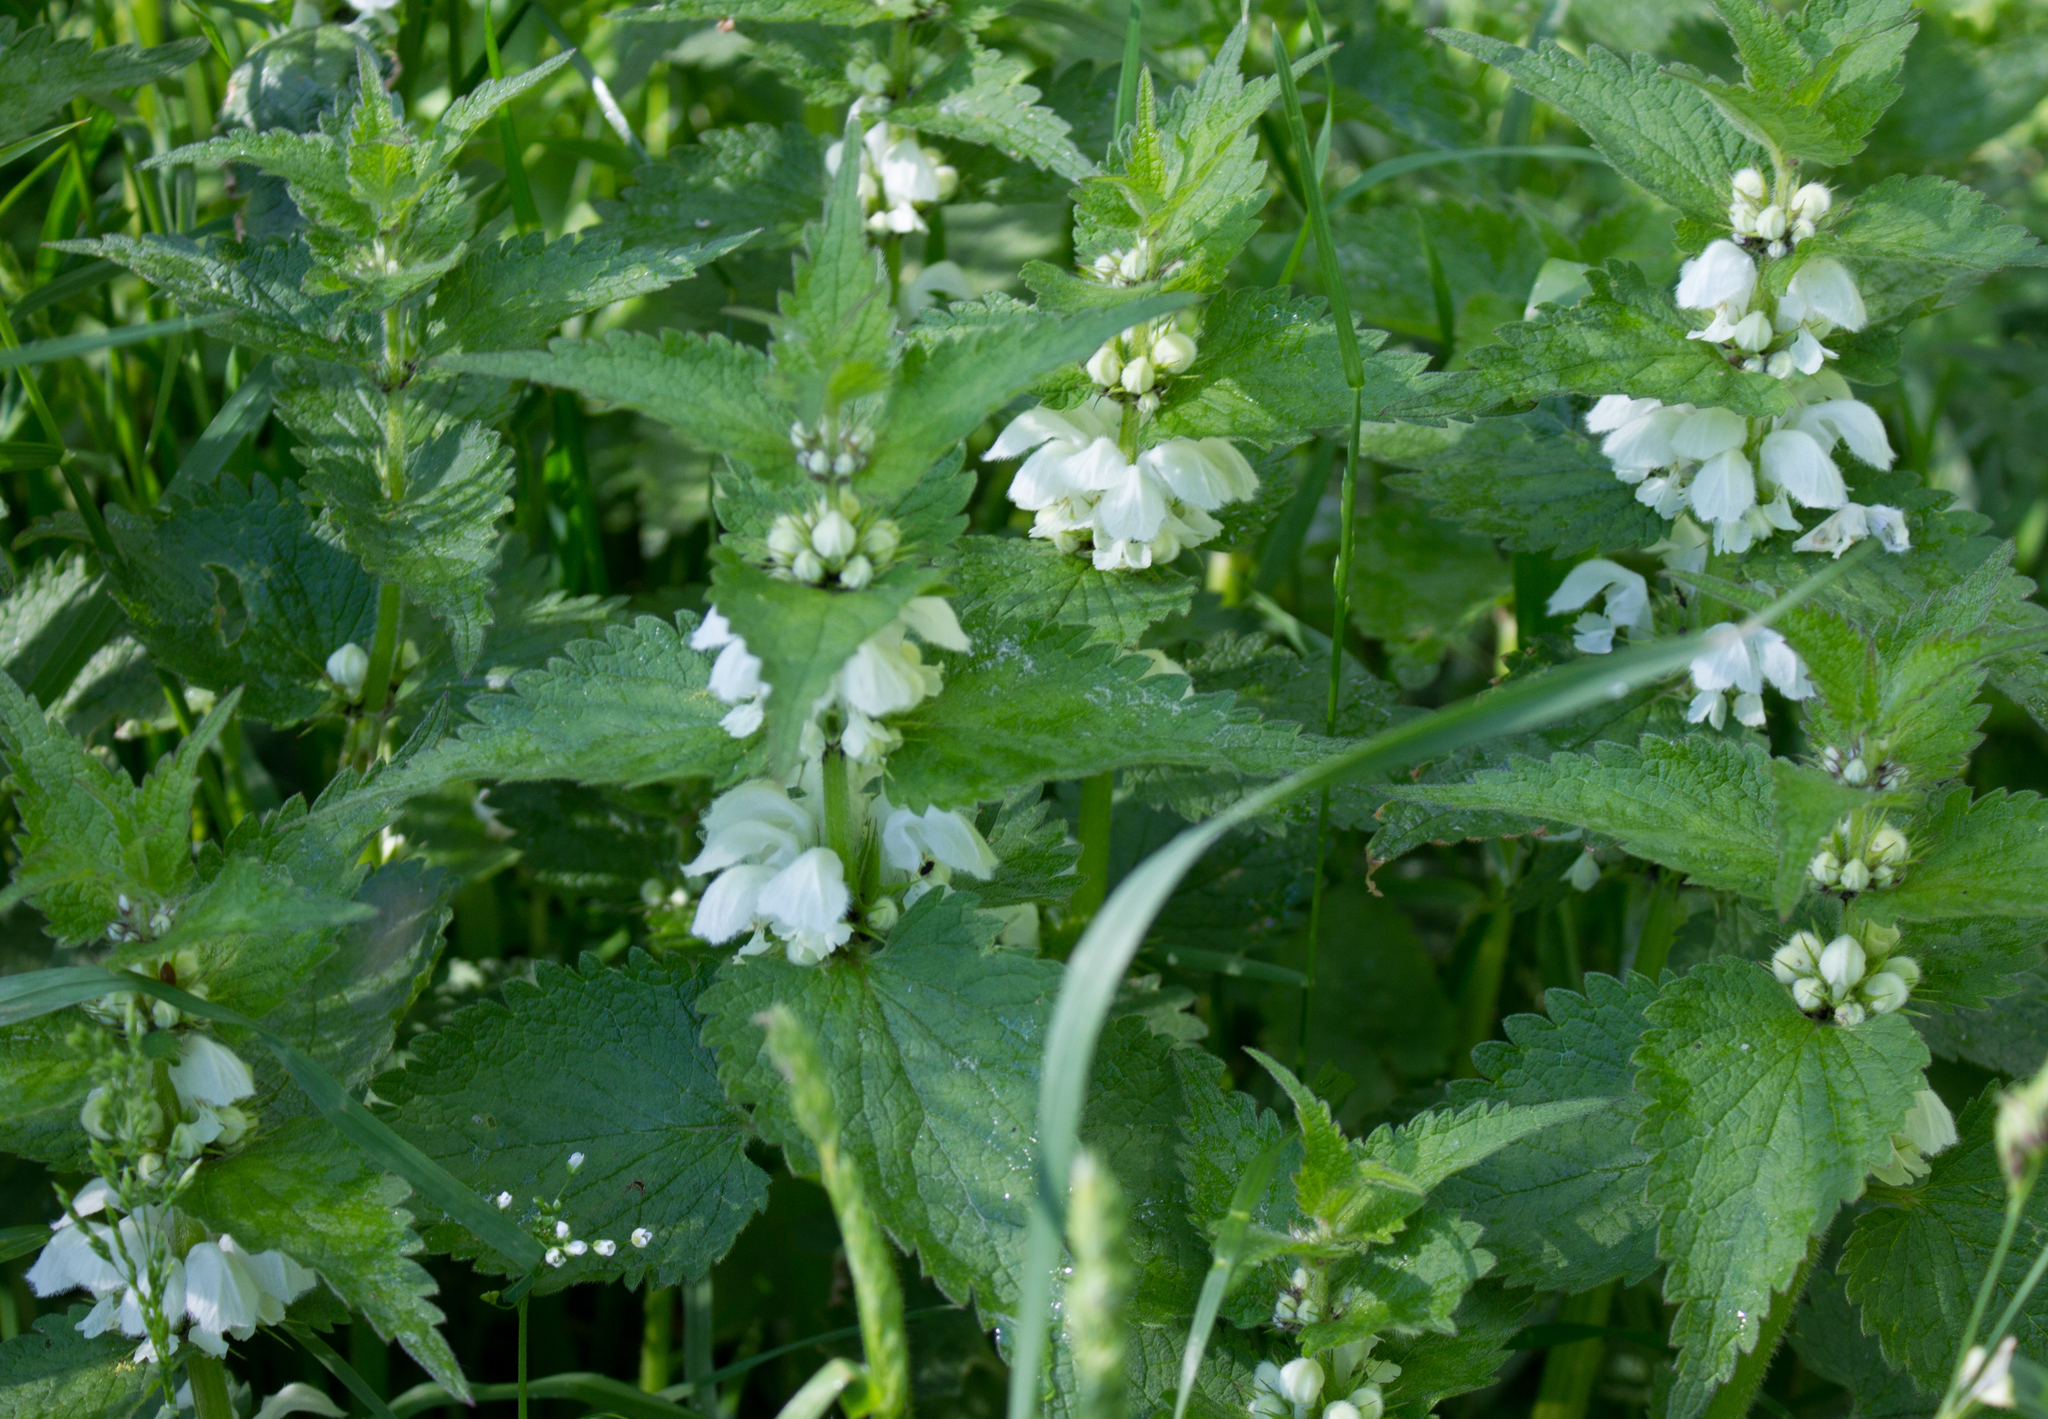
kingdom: Plantae
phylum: Tracheophyta
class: Magnoliopsida
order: Lamiales
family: Lamiaceae
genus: Lamium
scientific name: Lamium album
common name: White dead-nettle
